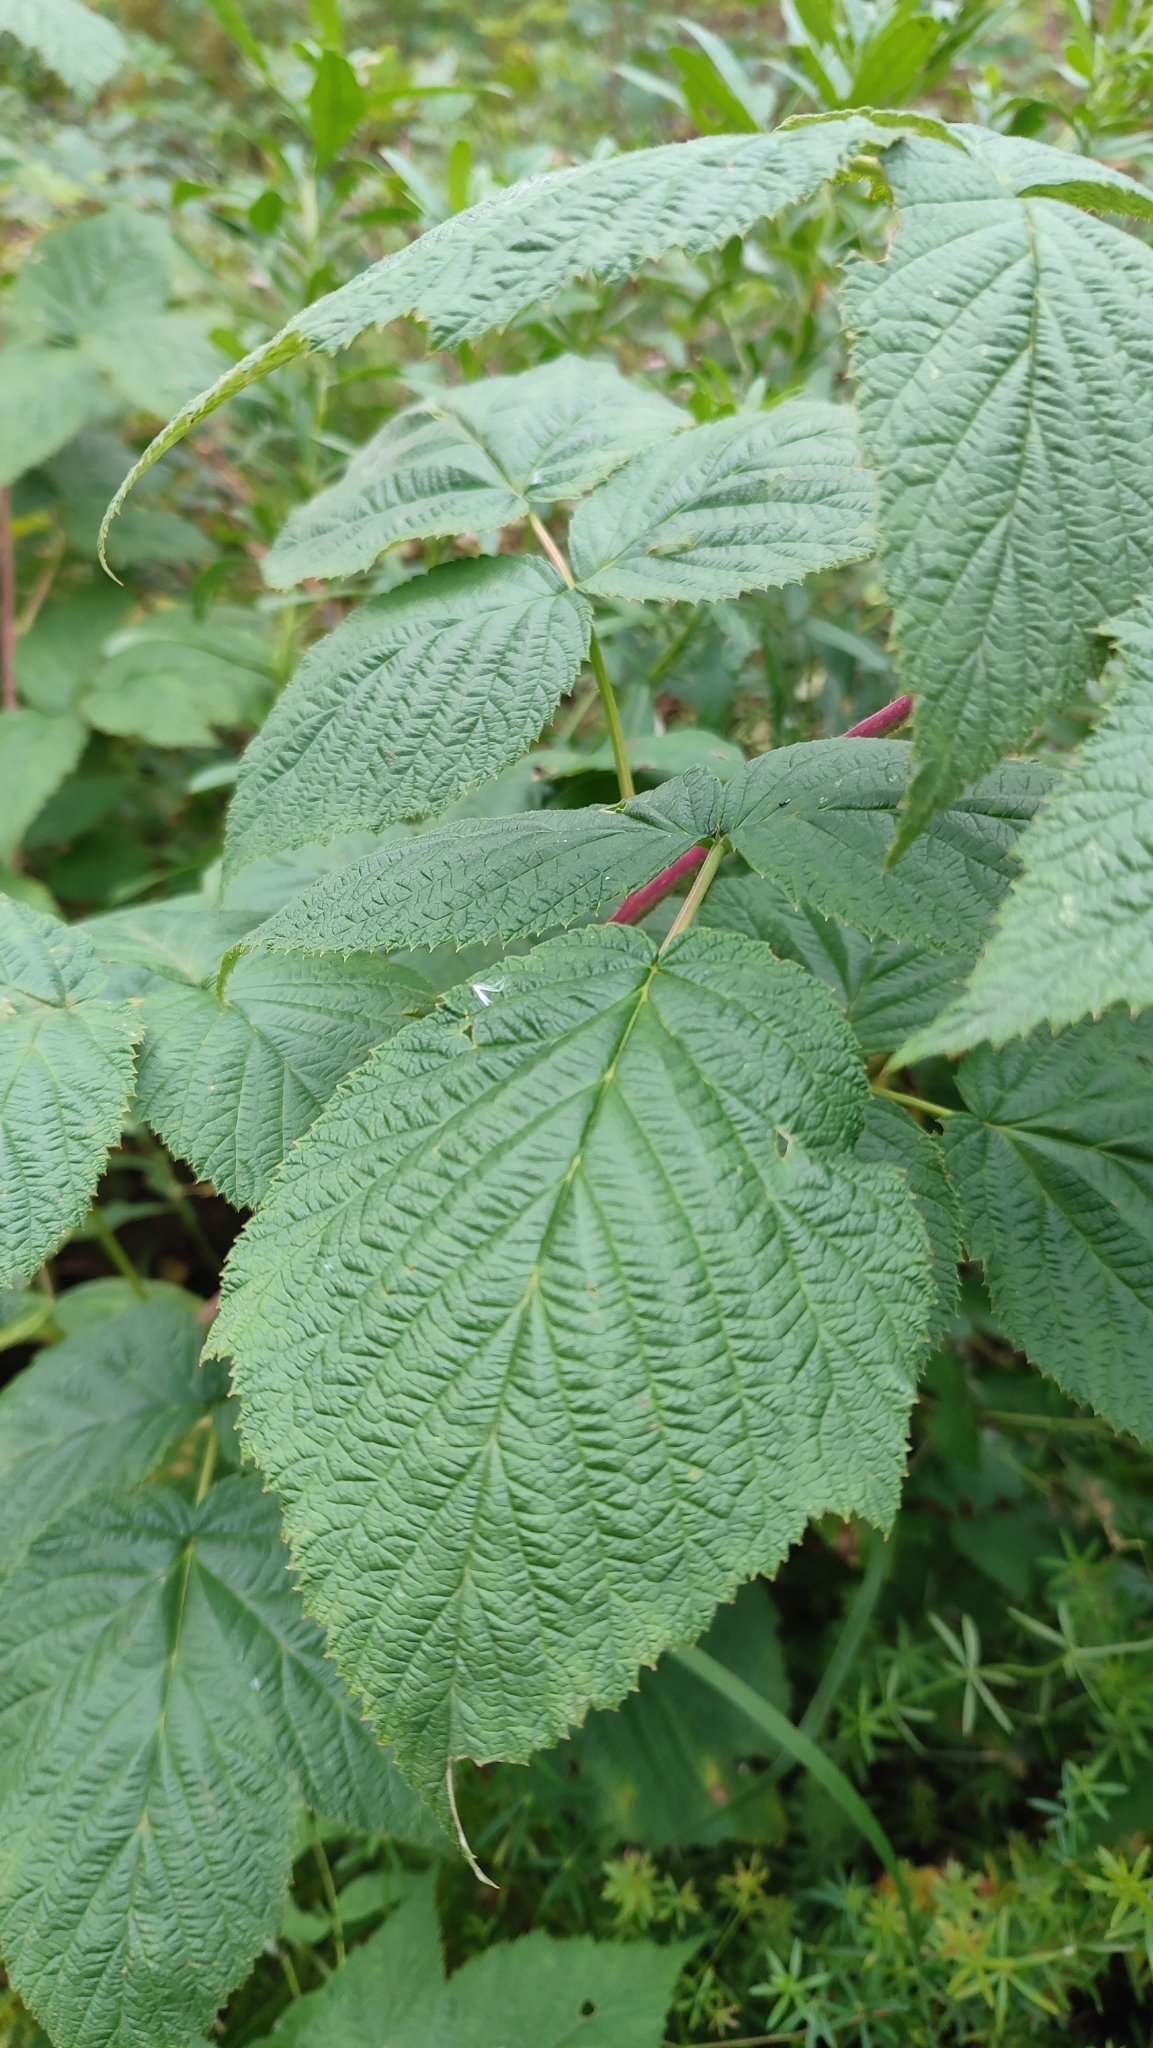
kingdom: Plantae
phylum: Tracheophyta
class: Magnoliopsida
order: Rosales
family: Rosaceae
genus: Rubus
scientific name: Rubus idaeus
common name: Raspberry
